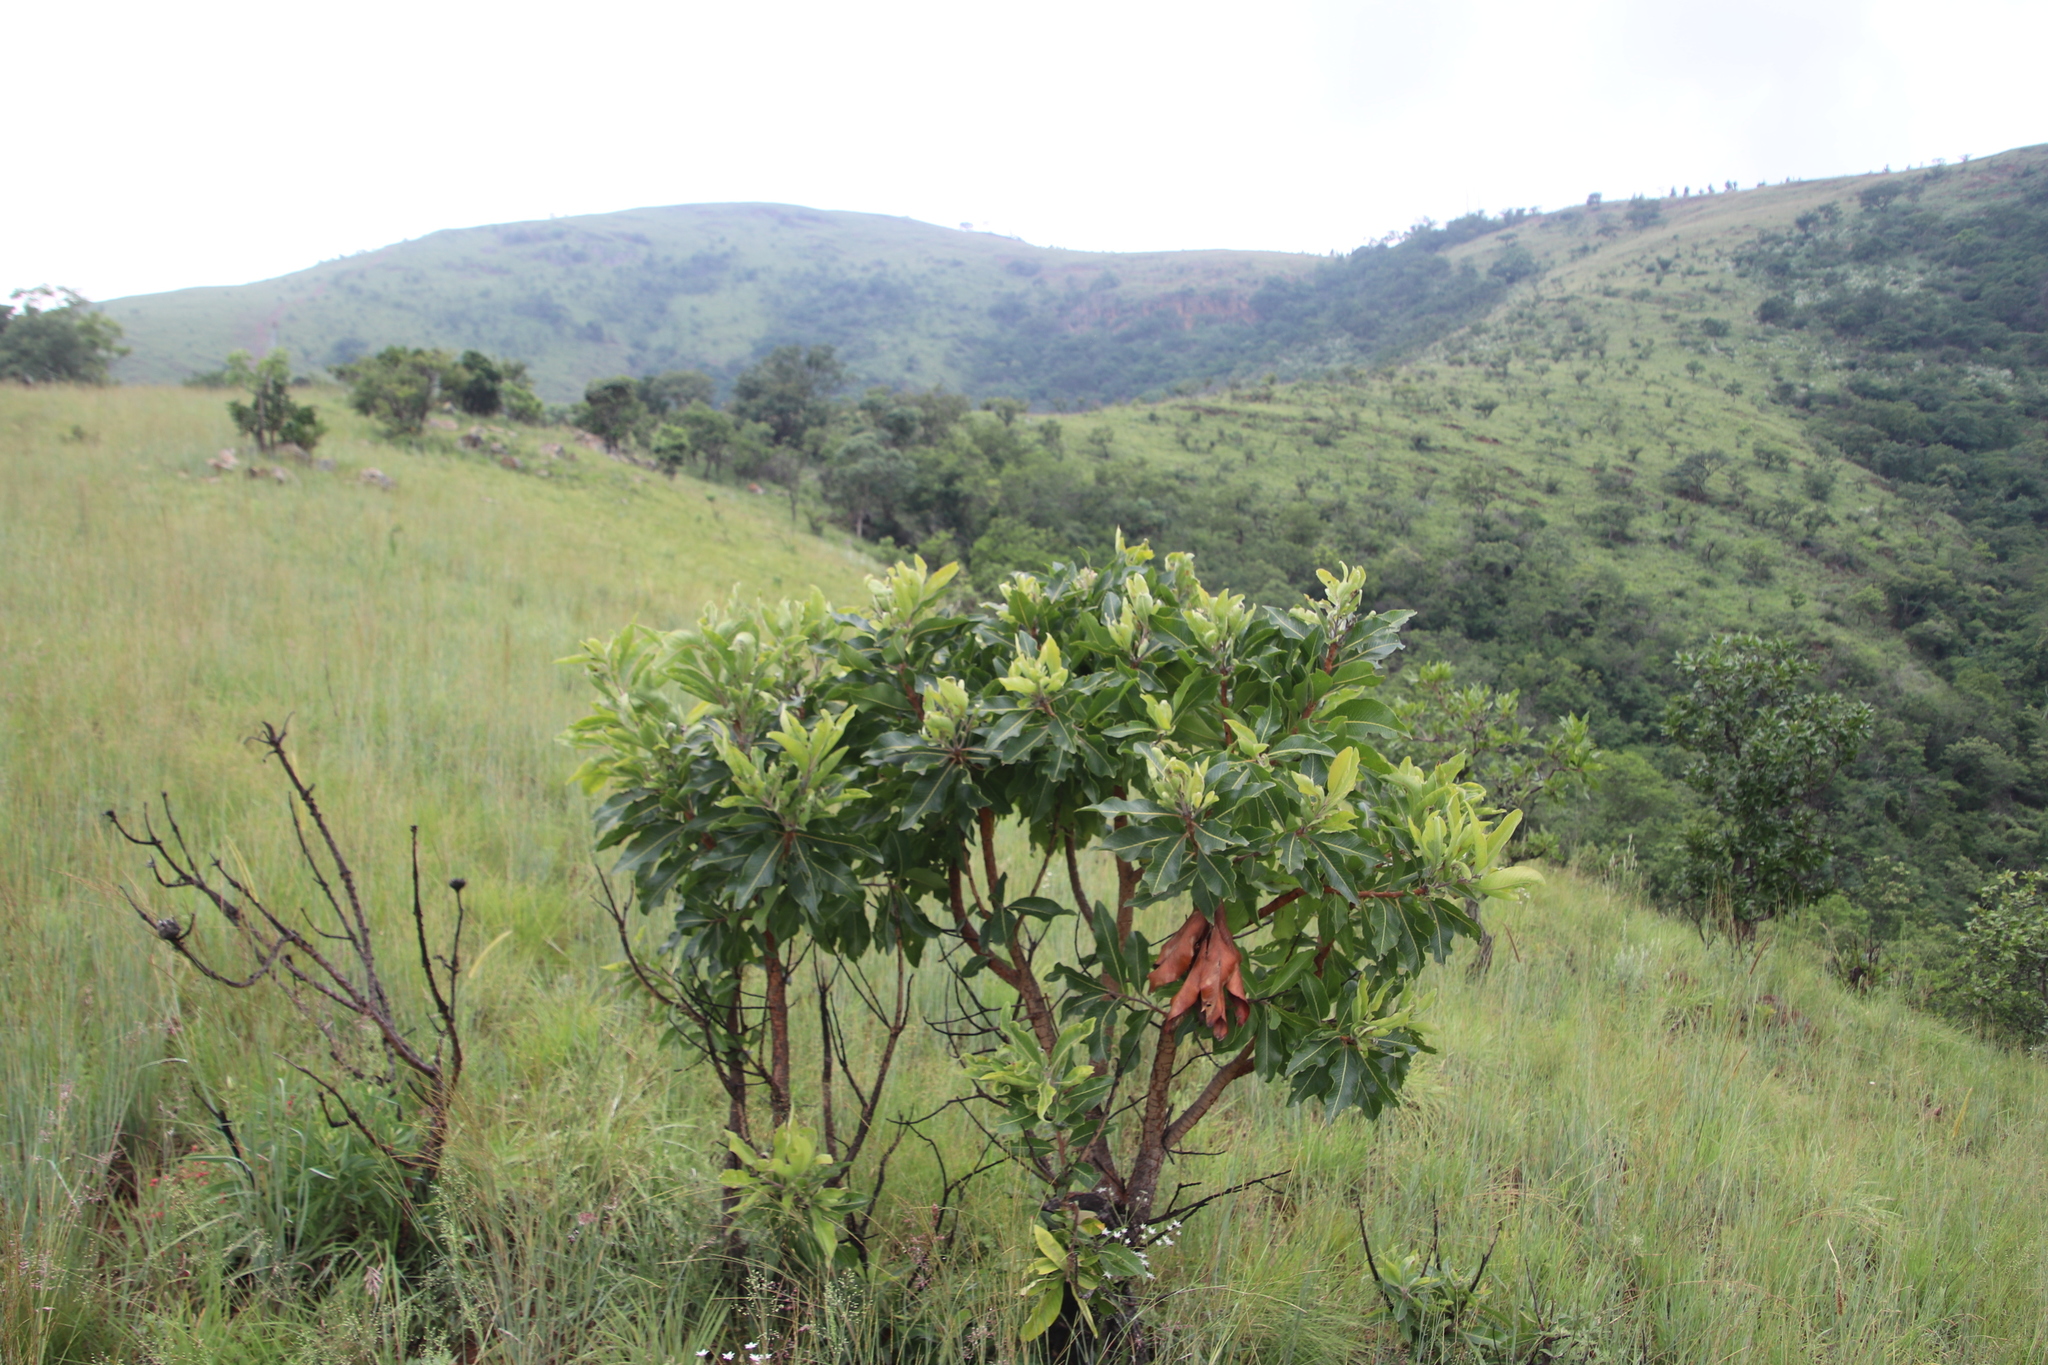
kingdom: Plantae
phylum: Tracheophyta
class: Magnoliopsida
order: Proteales
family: Proteaceae
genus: Faurea
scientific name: Faurea rochetiana
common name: Broad-leaved beech
